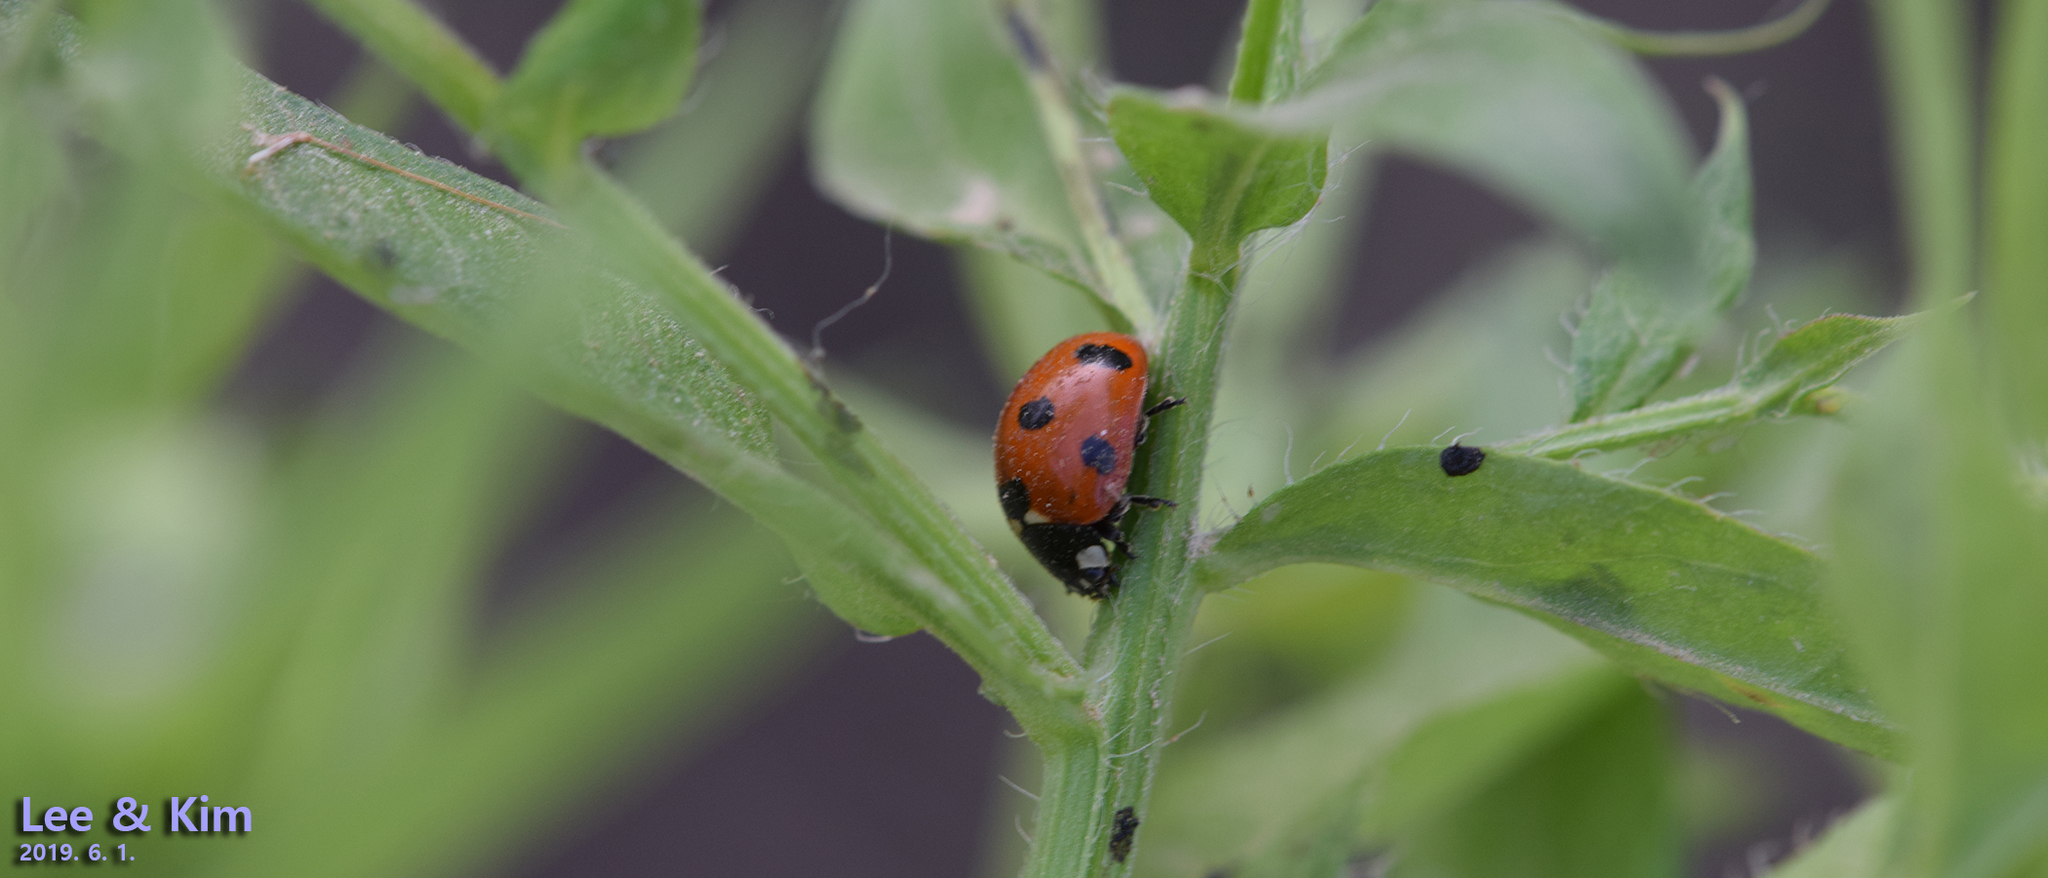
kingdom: Animalia
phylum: Arthropoda
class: Insecta
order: Coleoptera
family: Coccinellidae
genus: Coccinella
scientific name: Coccinella septempunctata
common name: Sevenspotted lady beetle
